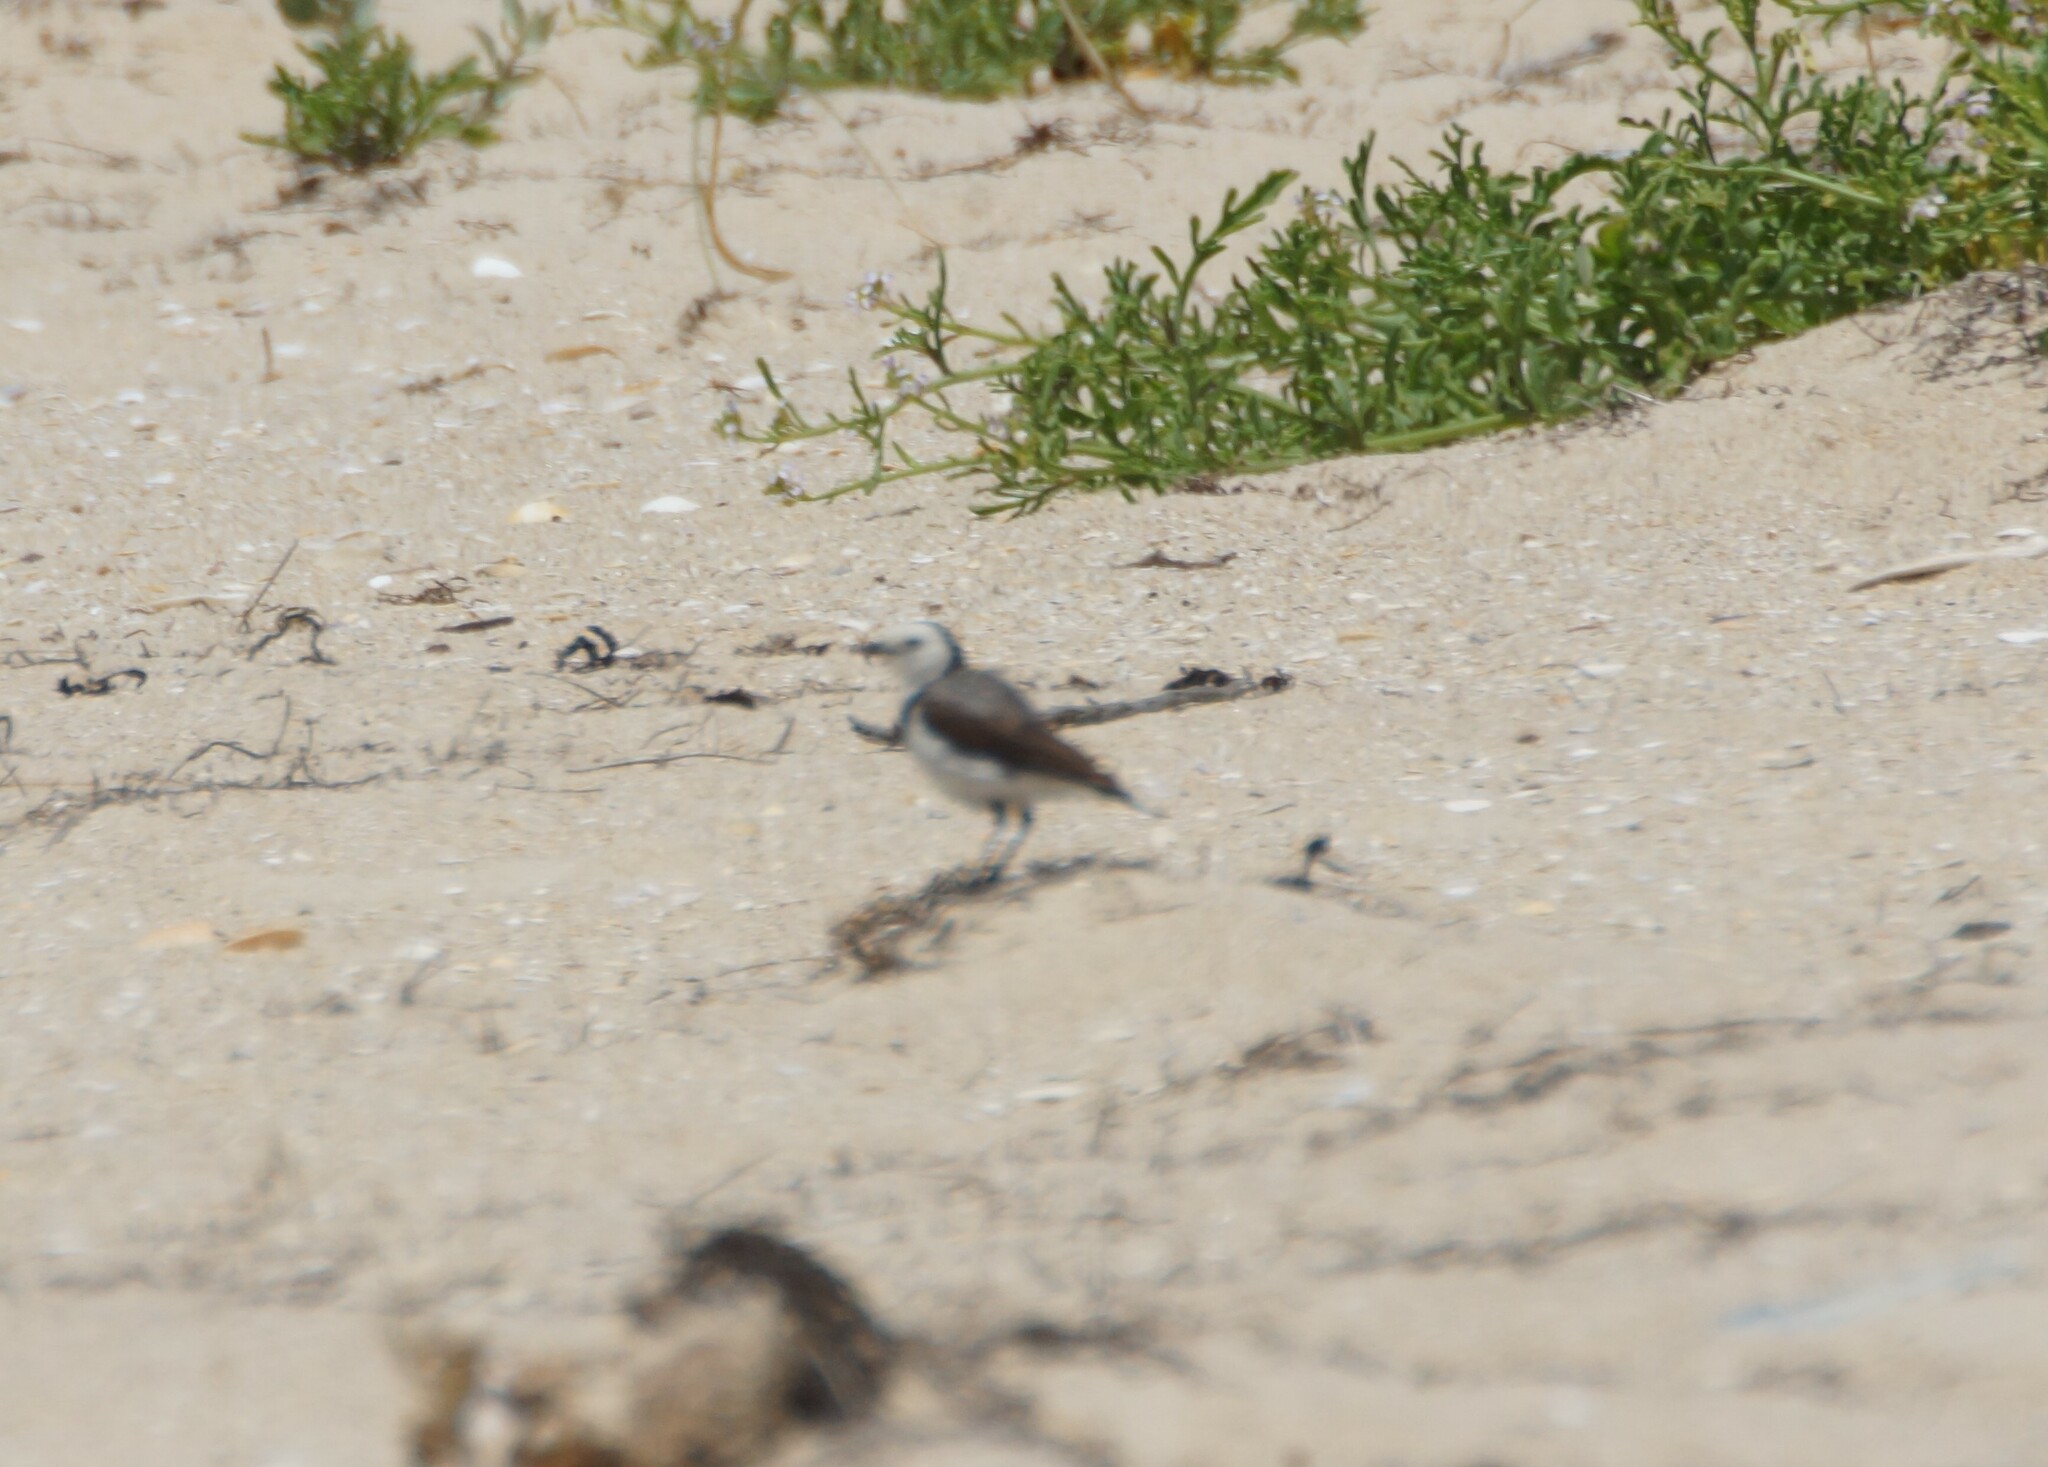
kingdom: Animalia
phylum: Chordata
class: Aves
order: Passeriformes
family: Meliphagidae
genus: Epthianura
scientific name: Epthianura albifrons
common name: White-fronted chat
